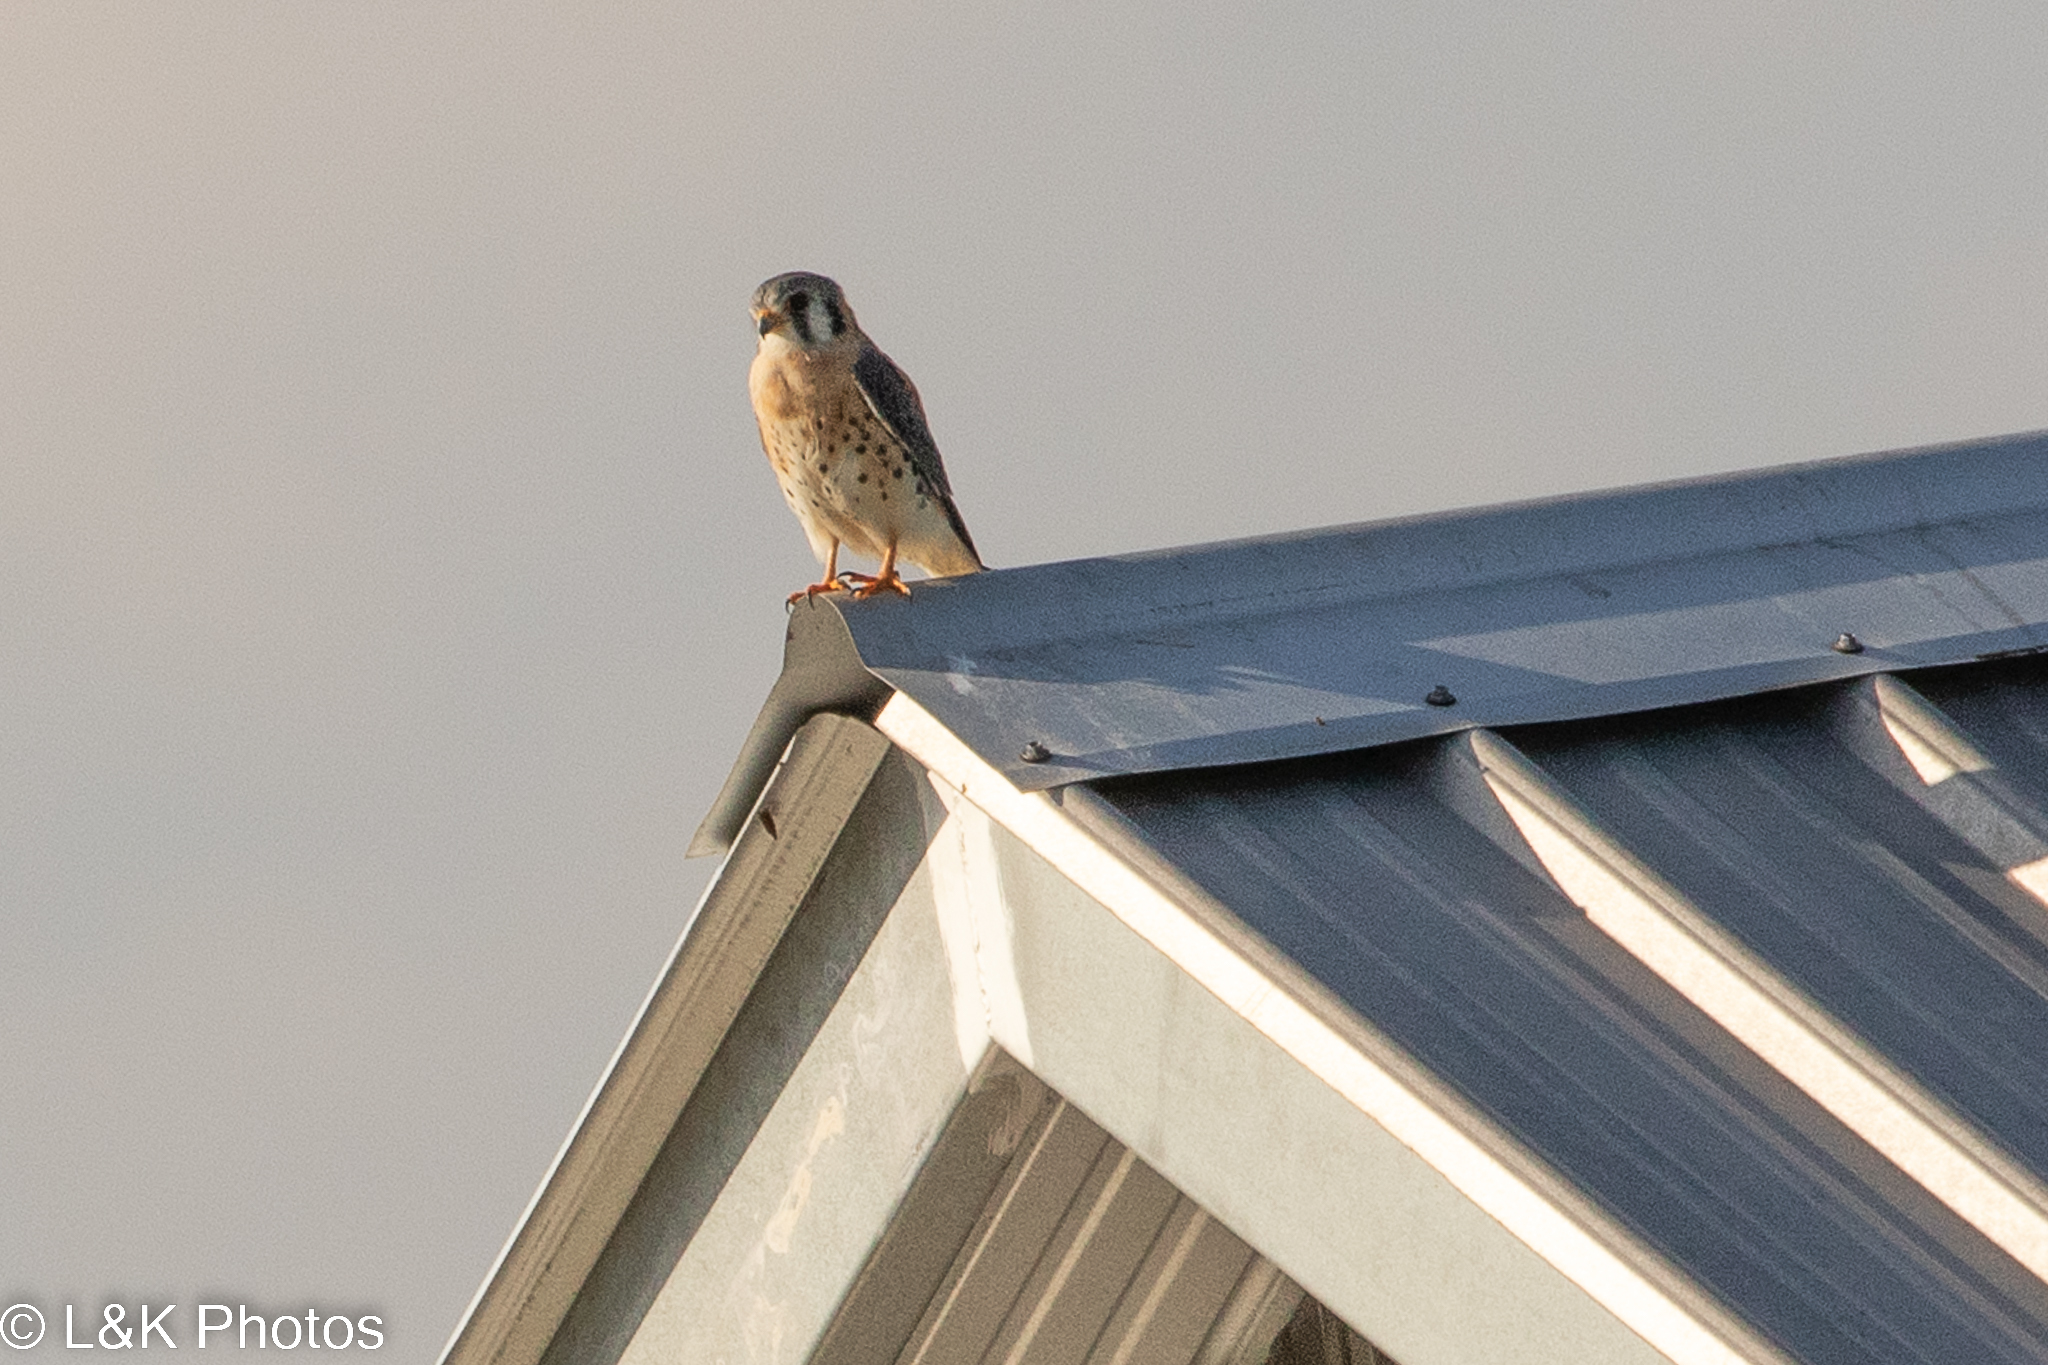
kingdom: Animalia
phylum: Chordata
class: Aves
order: Falconiformes
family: Falconidae
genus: Falco
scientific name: Falco sparverius
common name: American kestrel
